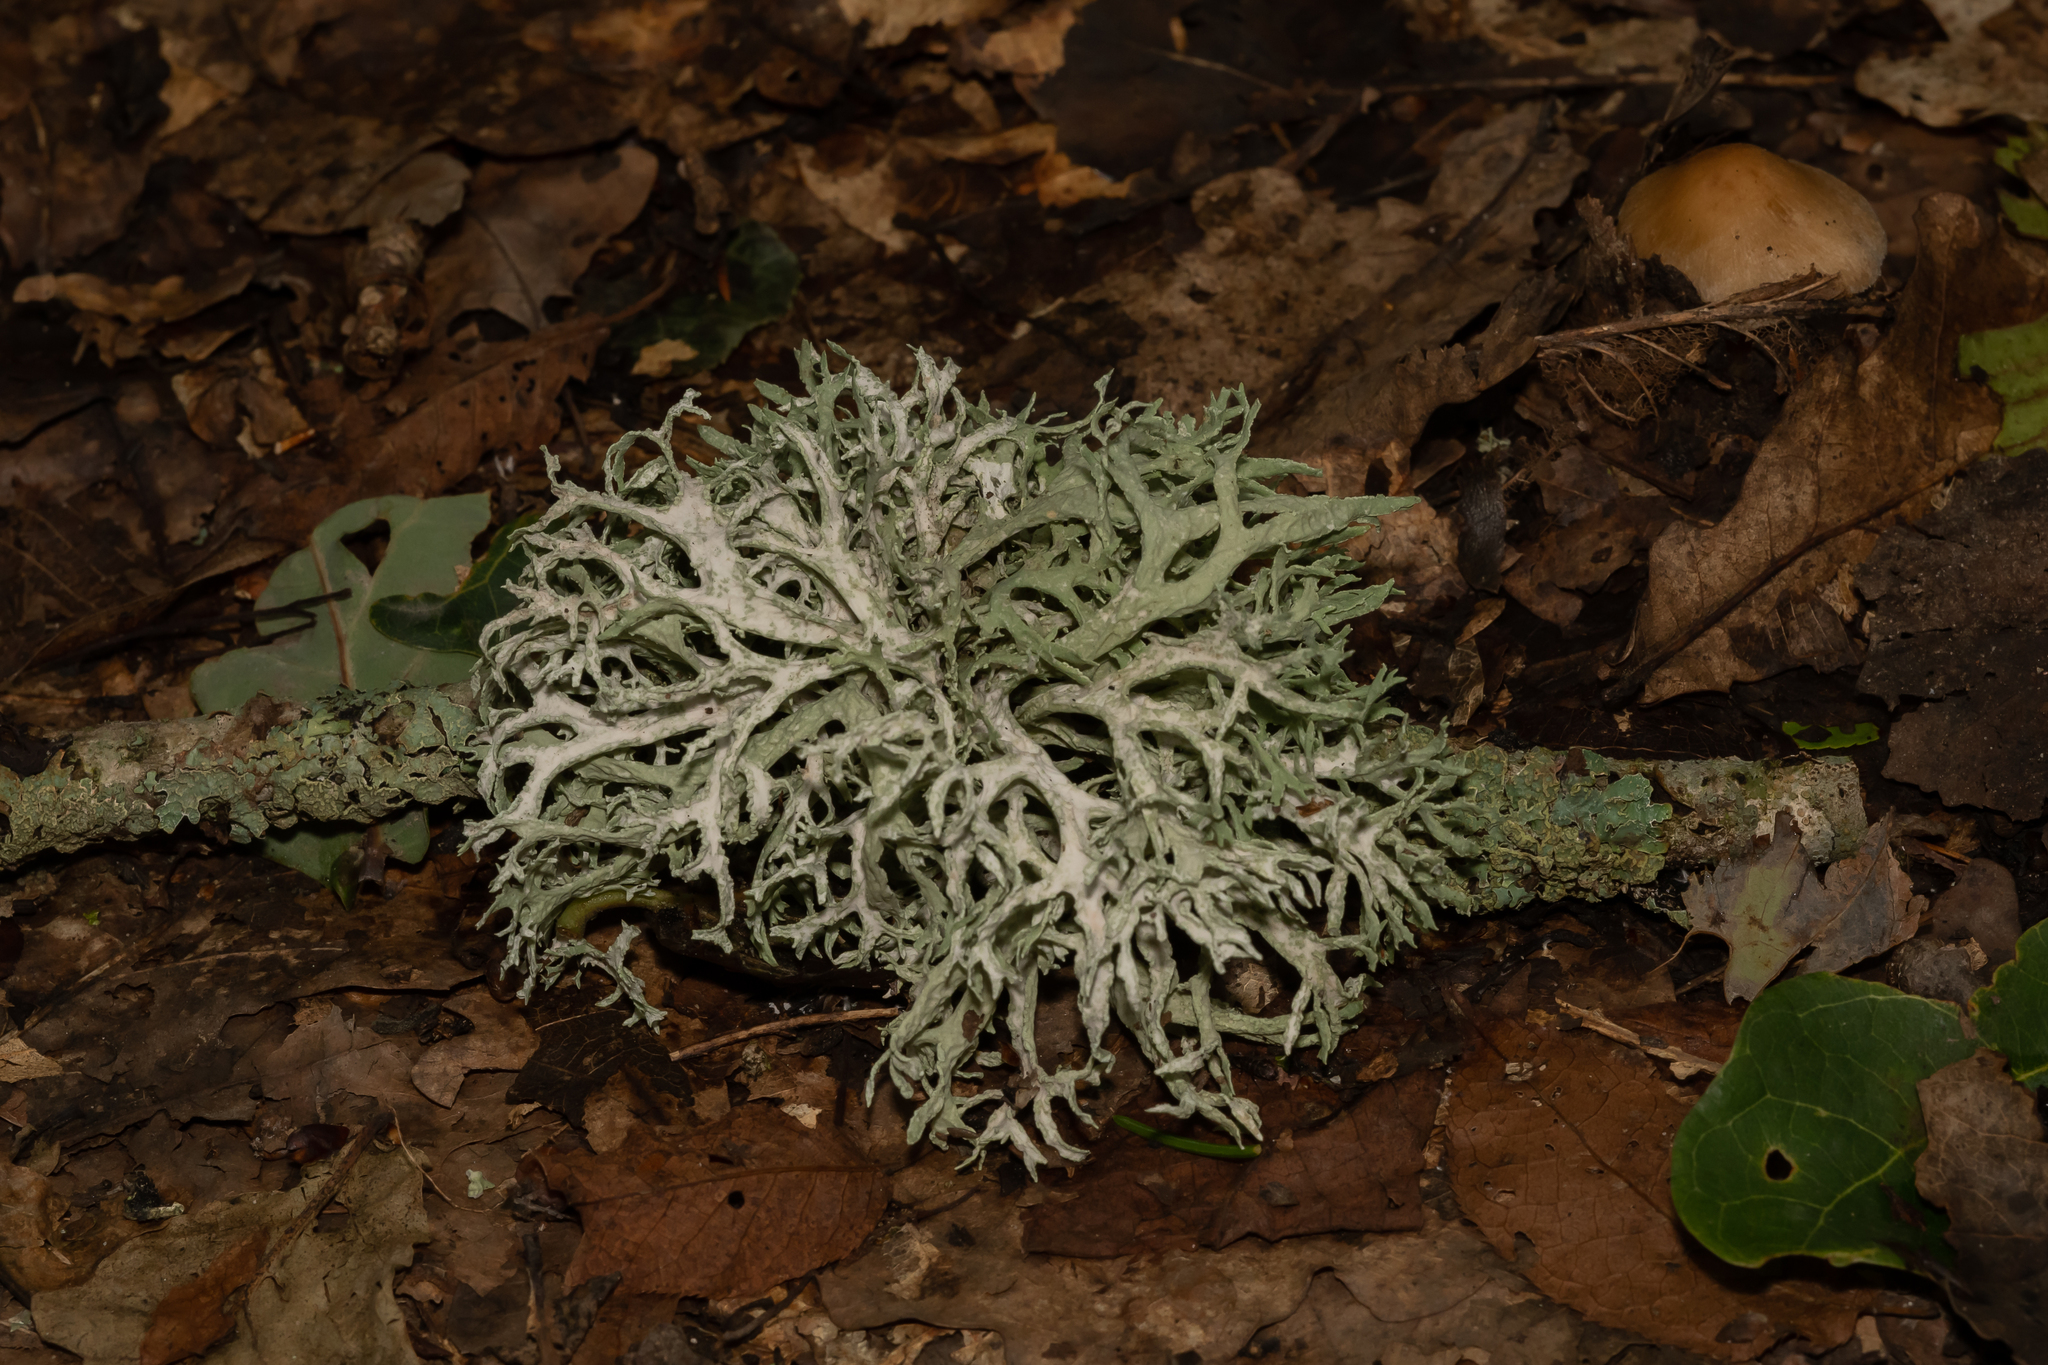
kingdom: Fungi
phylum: Ascomycota
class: Lecanoromycetes
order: Lecanorales
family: Parmeliaceae
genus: Evernia
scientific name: Evernia prunastri
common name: Oak moss
